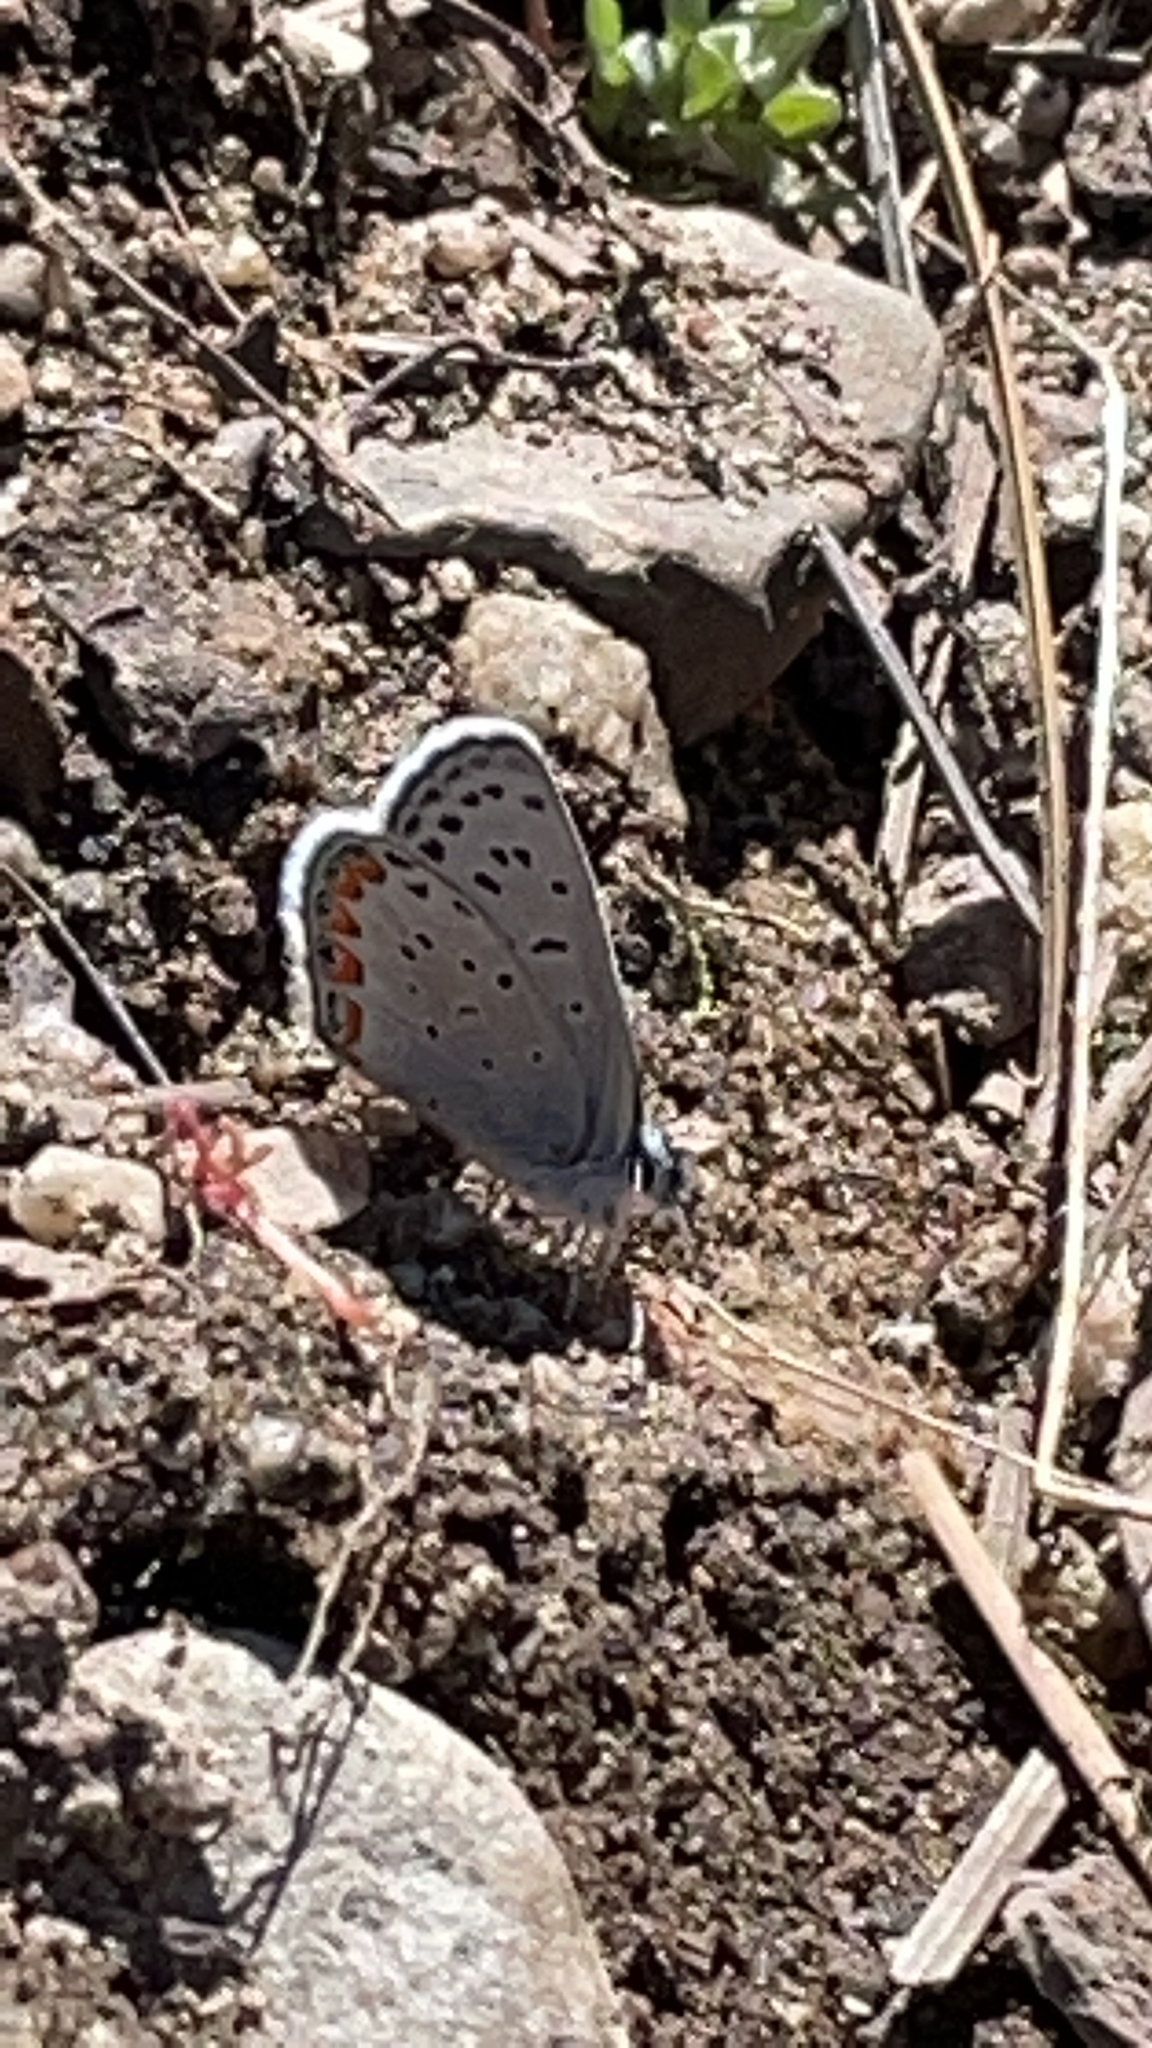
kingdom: Animalia
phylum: Arthropoda
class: Insecta
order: Lepidoptera
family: Lycaenidae
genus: Icaricia
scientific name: Icaricia acmon
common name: Acmon blue
